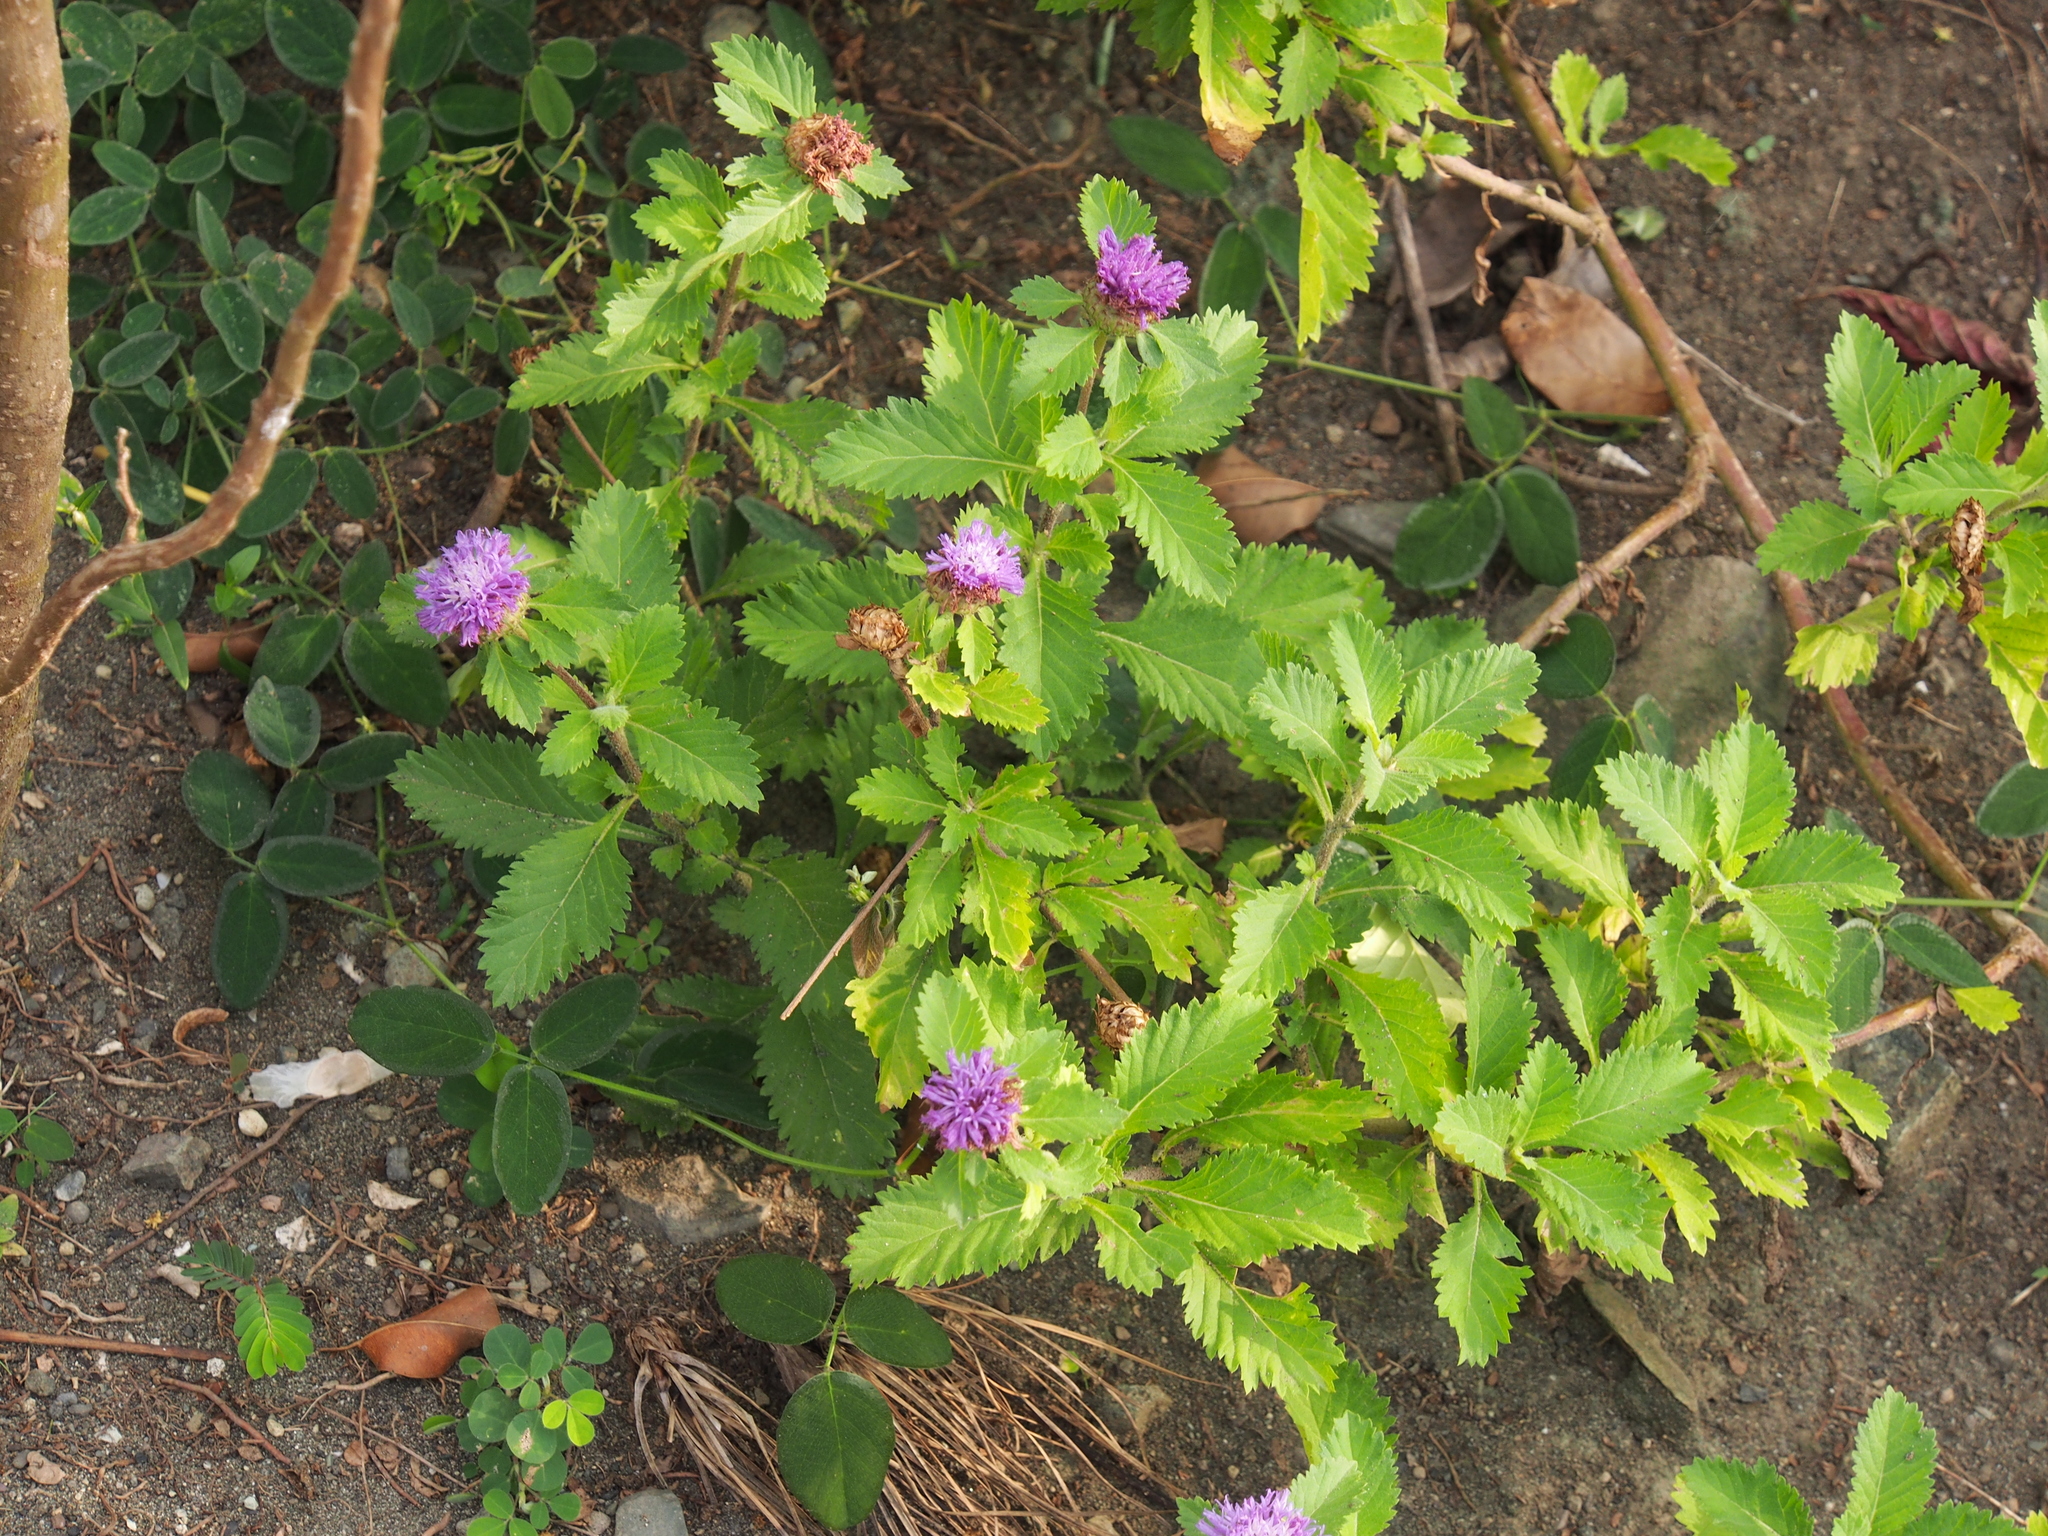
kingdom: Plantae
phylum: Tracheophyta
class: Magnoliopsida
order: Asterales
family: Asteraceae
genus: Centratherum
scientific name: Centratherum punctatum
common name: Larkdaisy
